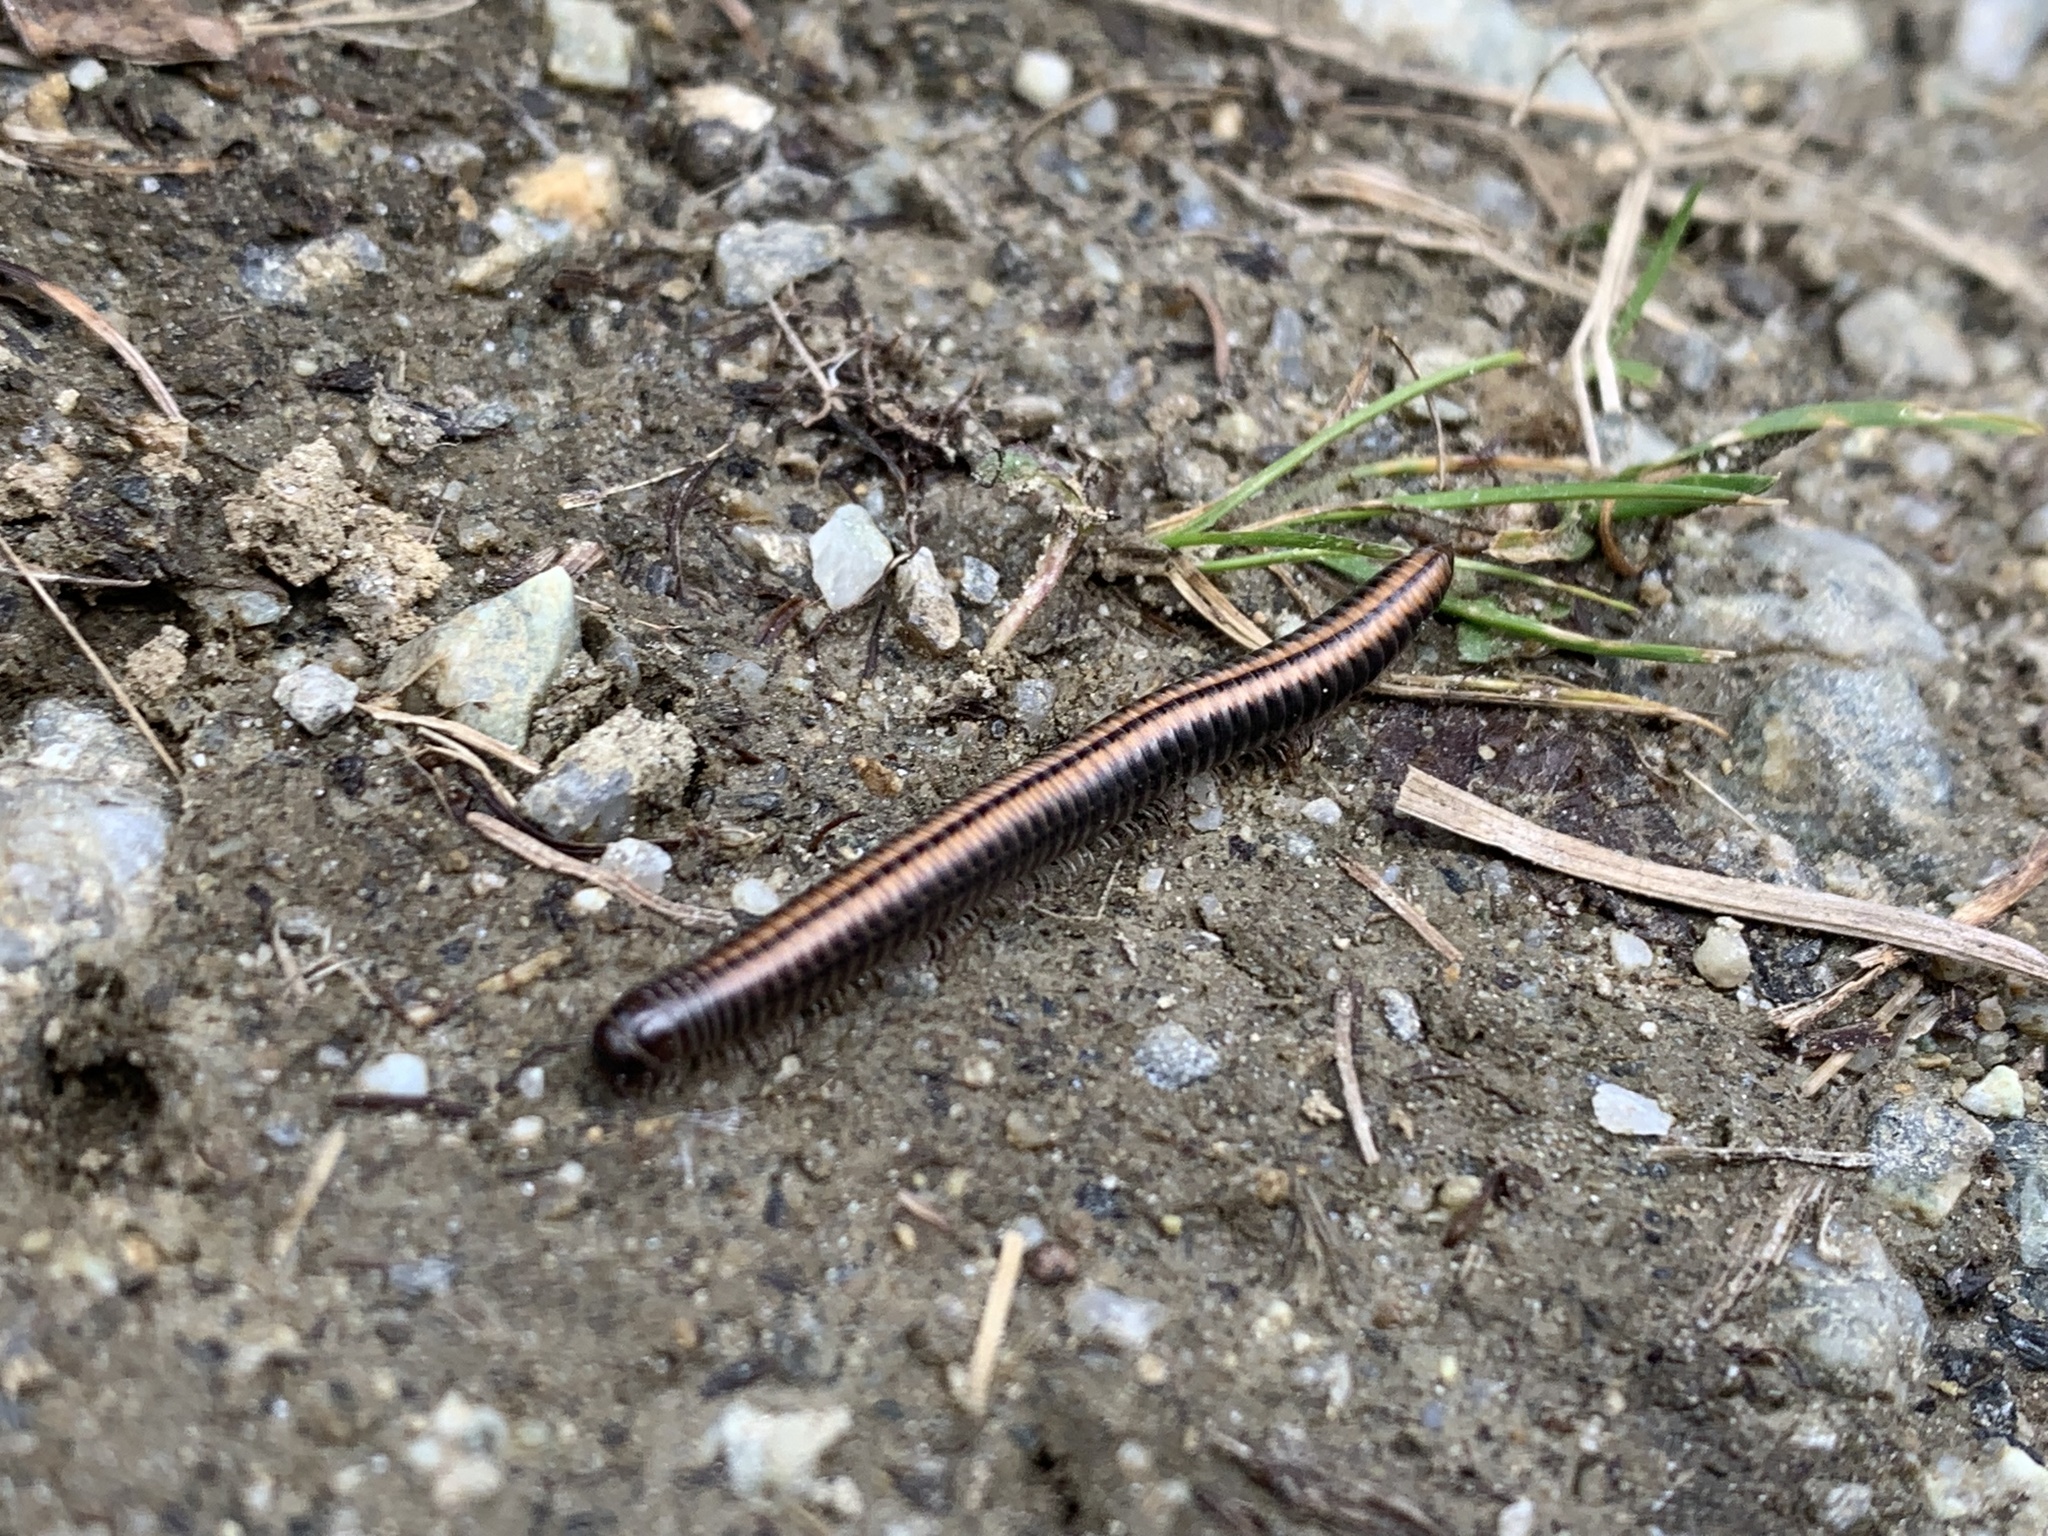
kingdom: Animalia
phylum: Arthropoda
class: Diplopoda
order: Julida
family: Julidae
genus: Ommatoiulus
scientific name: Ommatoiulus sabulosus
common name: Striped millipede
